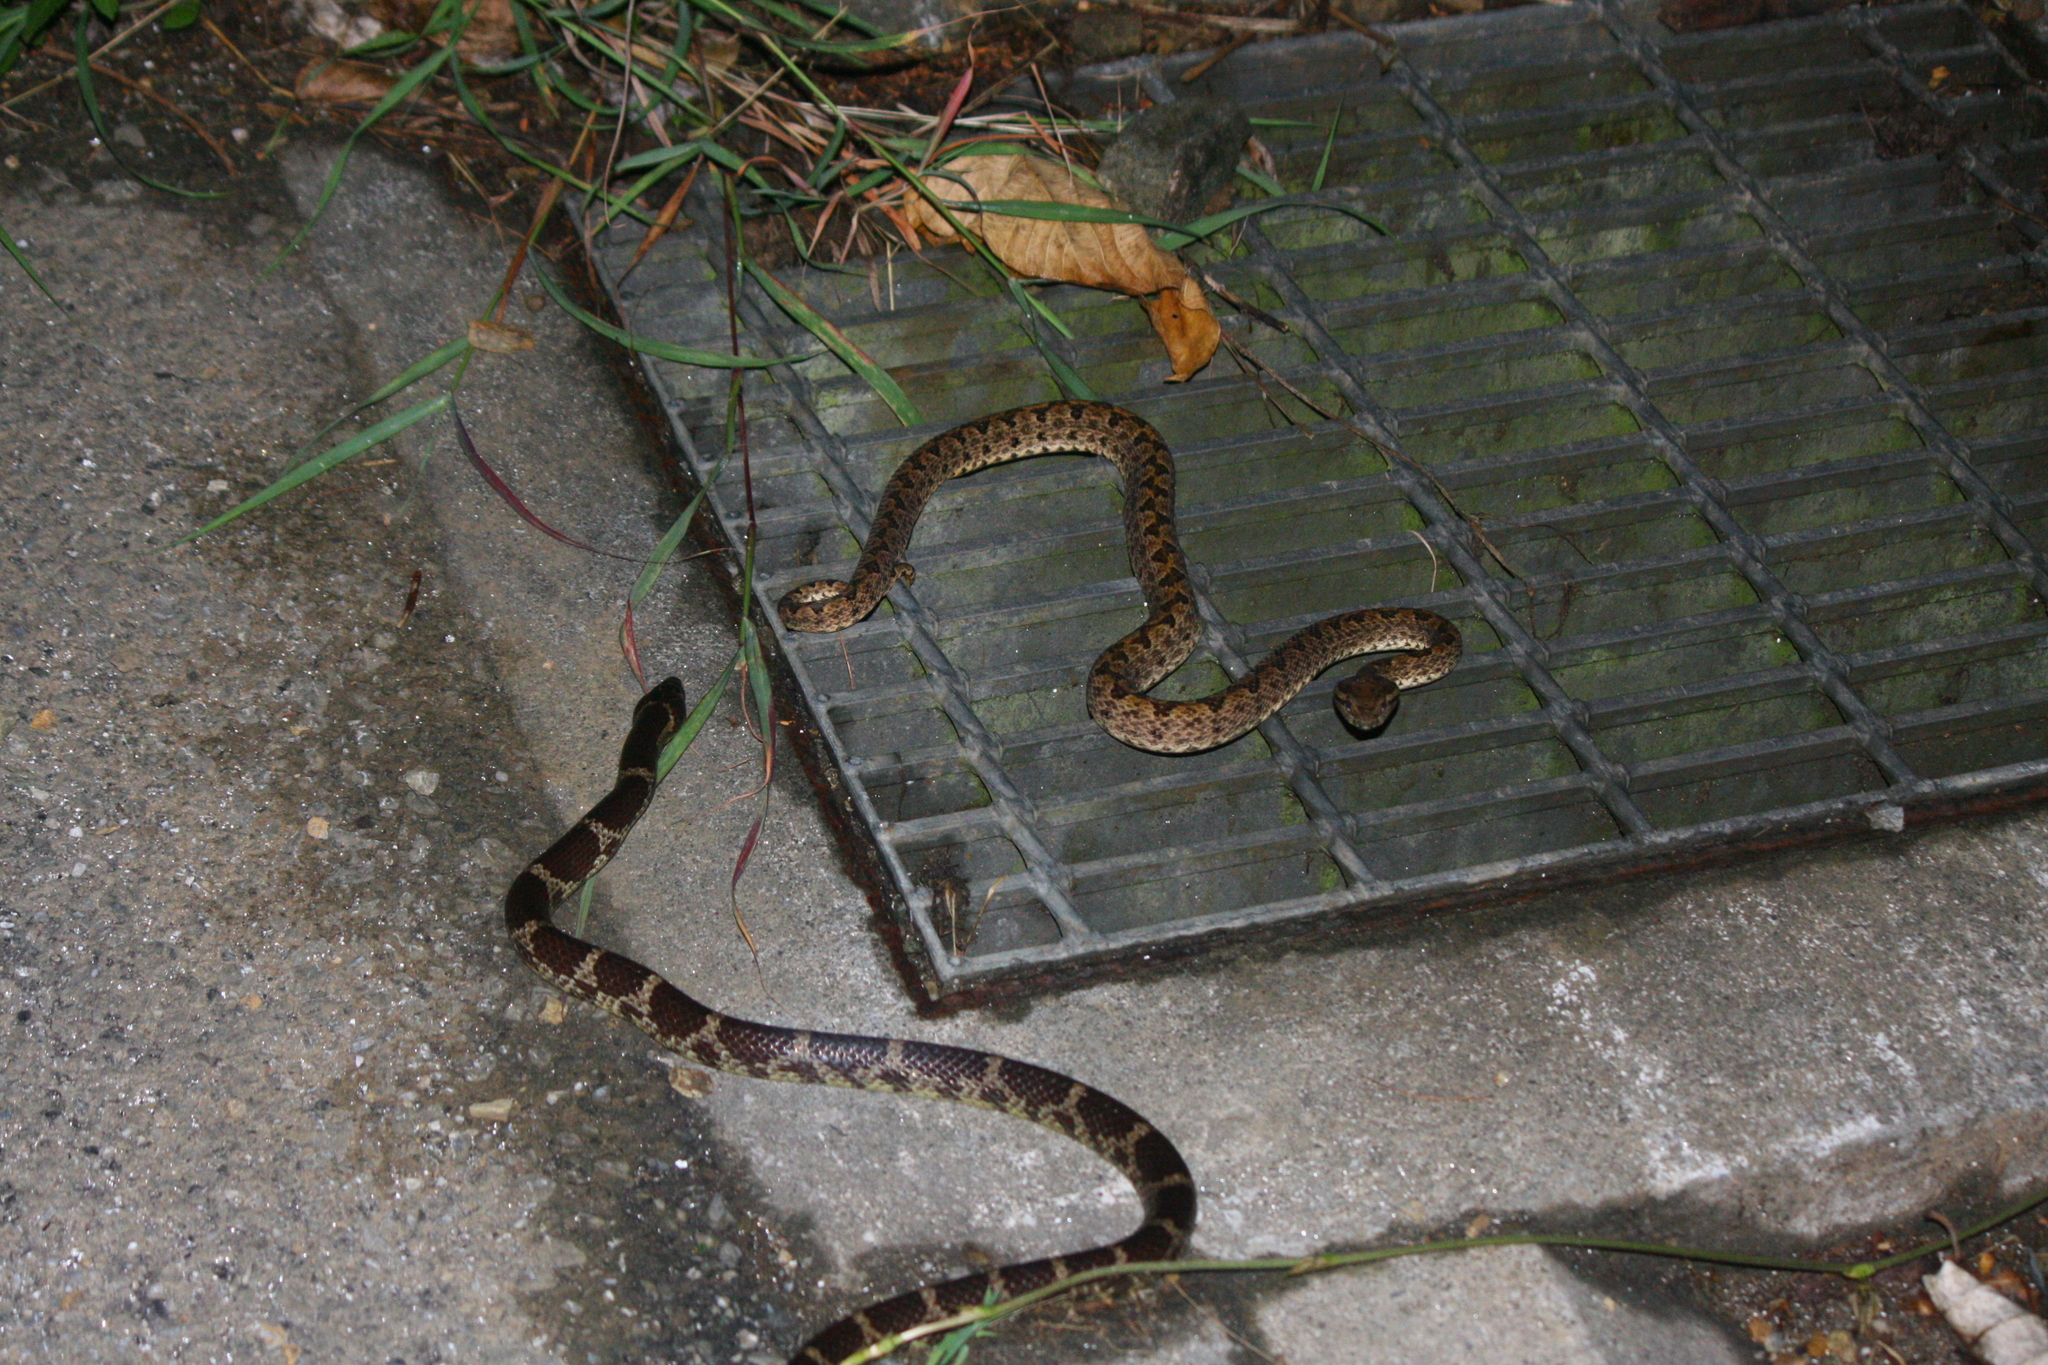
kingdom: Animalia
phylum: Chordata
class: Squamata
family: Viperidae
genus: Protobothrops
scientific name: Protobothrops elegans
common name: Elegant pitviper
